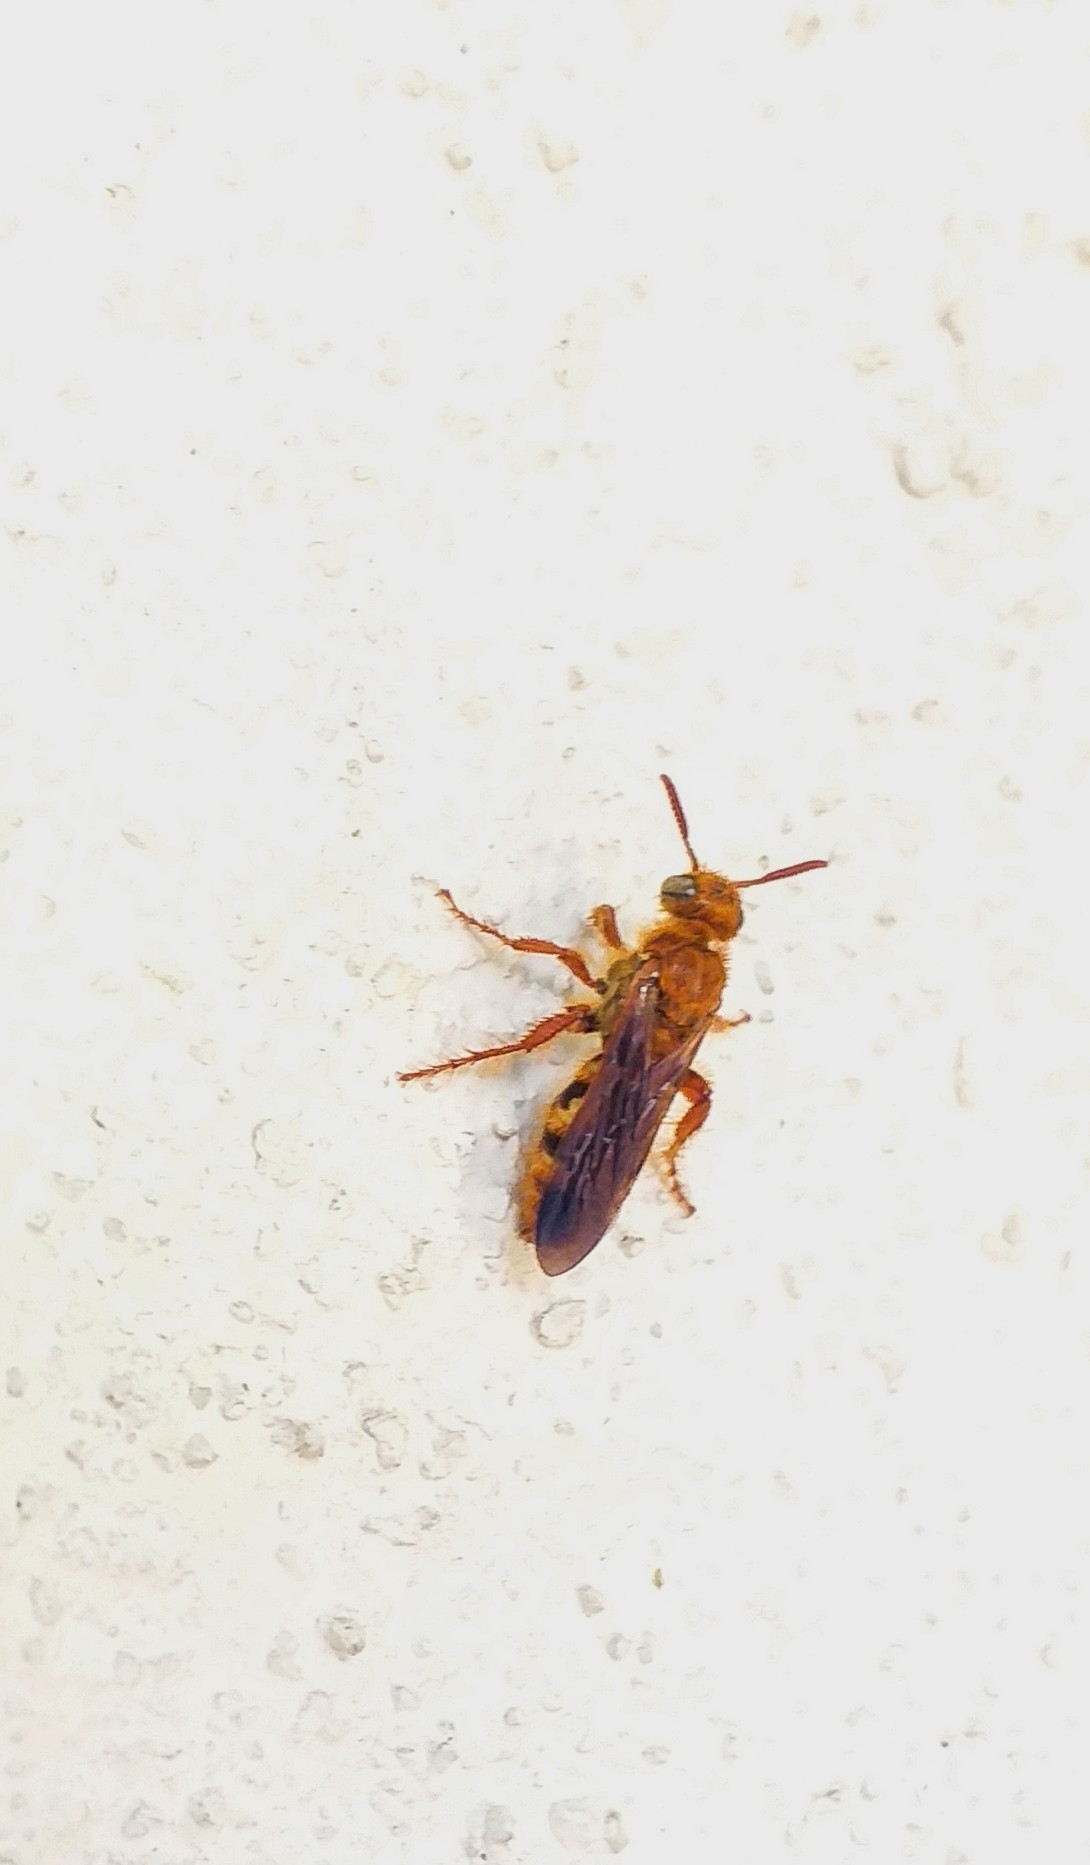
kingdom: Animalia
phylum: Arthropoda
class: Insecta
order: Hymenoptera
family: Scoliidae
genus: Phalerimeris
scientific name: Phalerimeris
